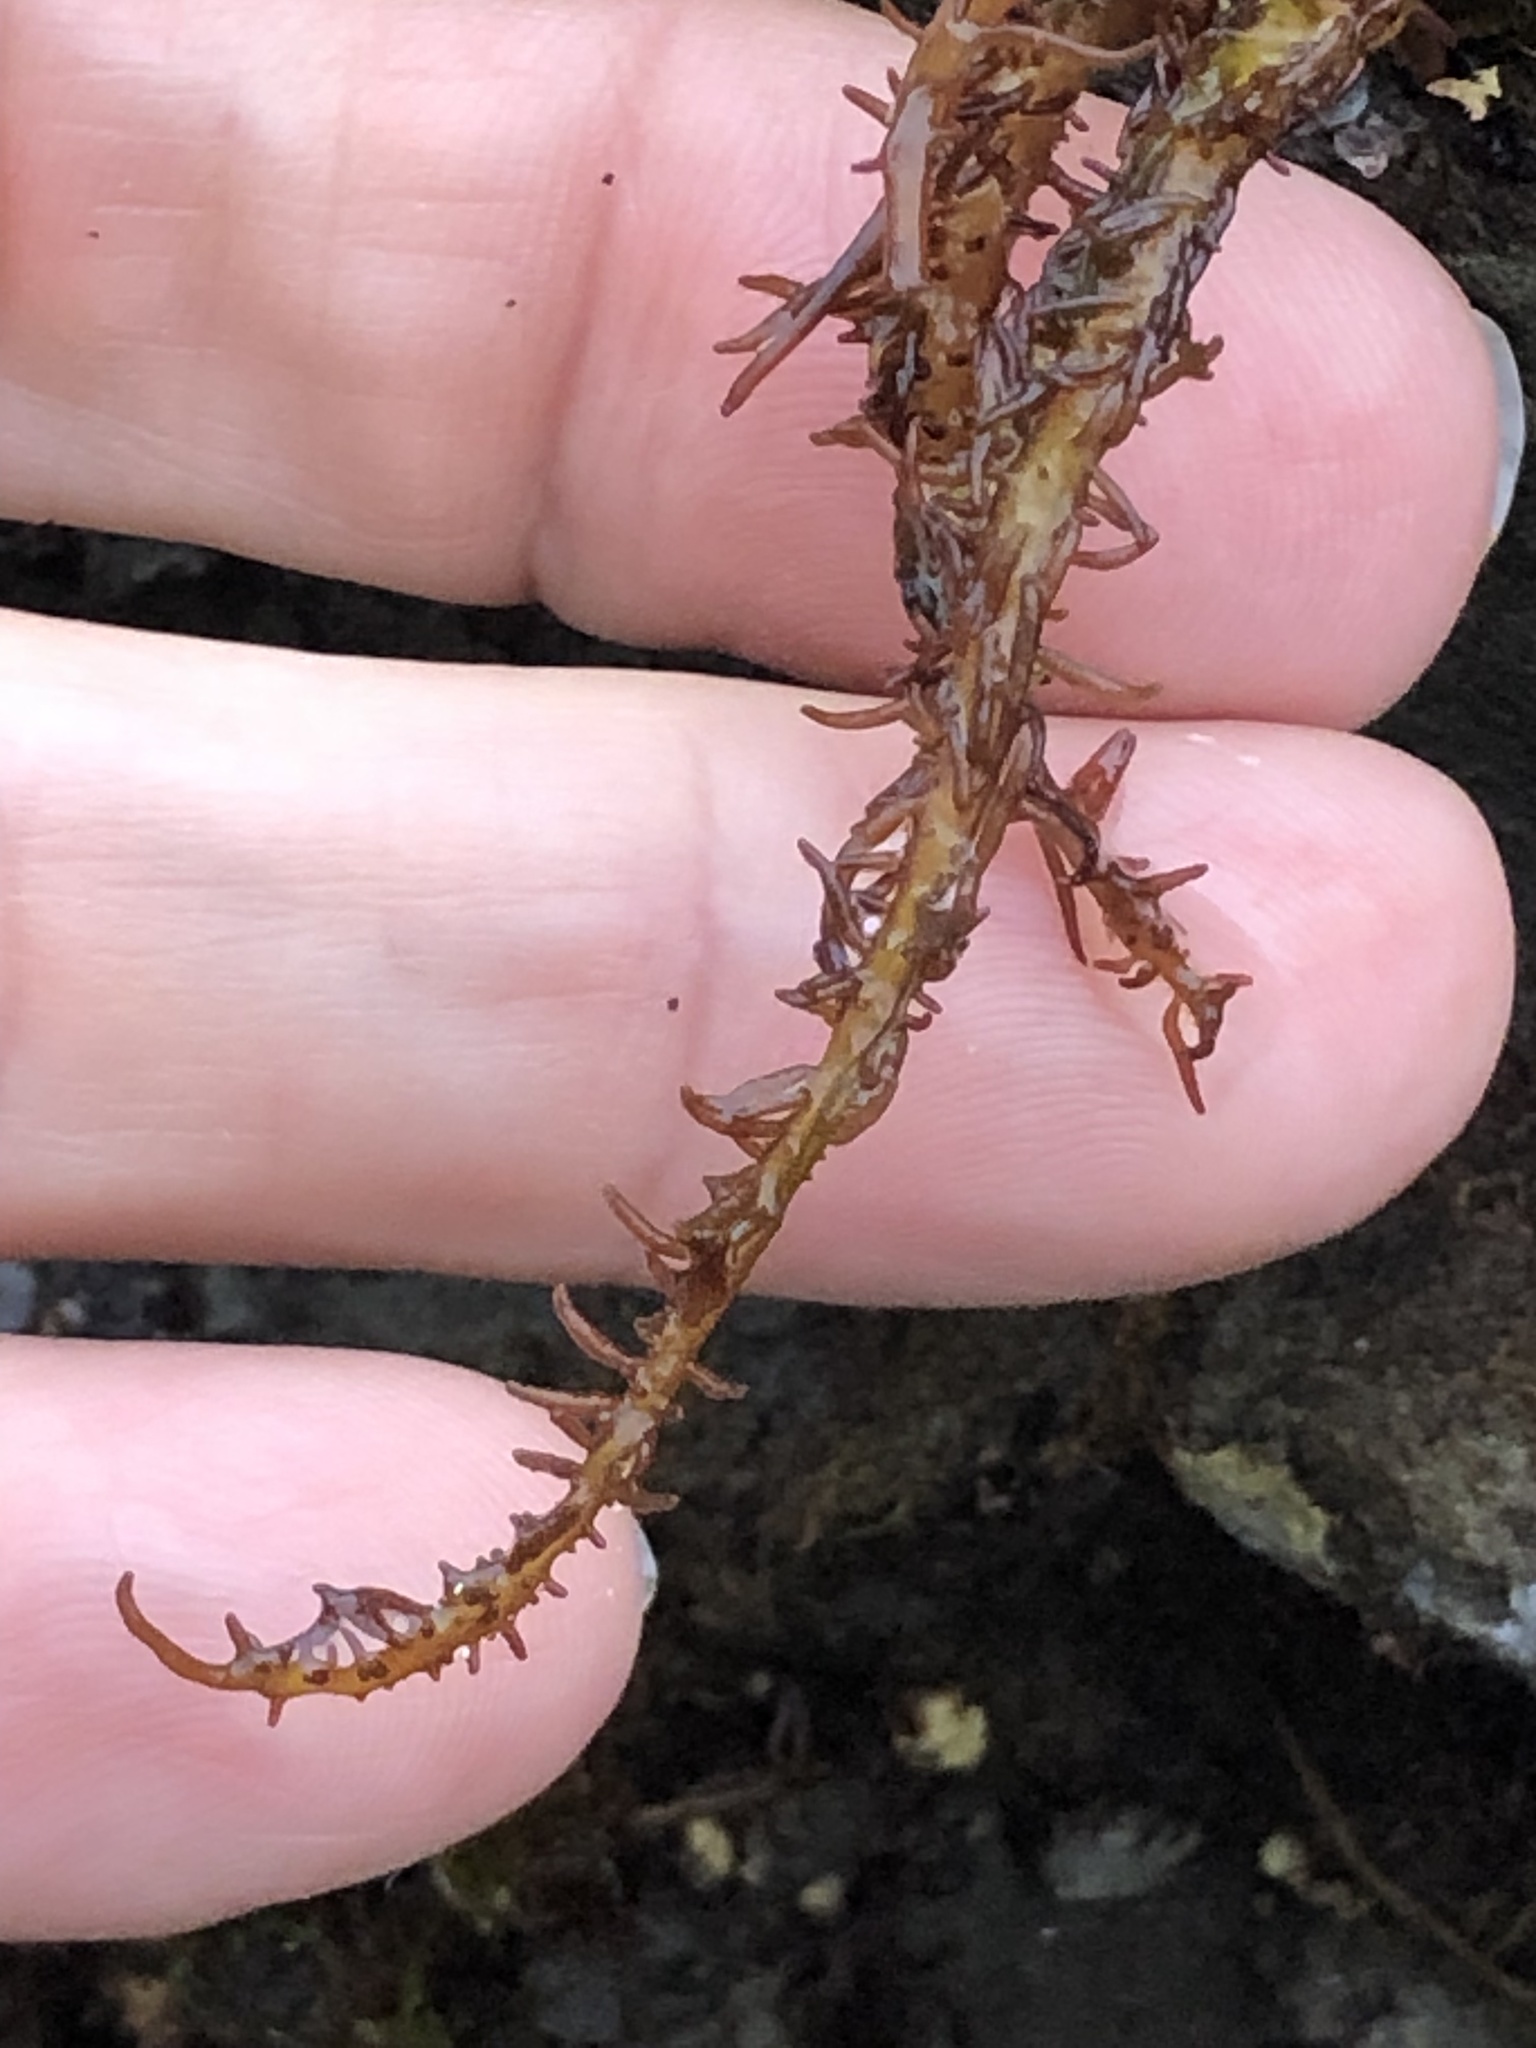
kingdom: Plantae
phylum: Rhodophyta
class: Florideophyceae
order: Nemaliales
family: Liagoraceae
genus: Cumagloia
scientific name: Cumagloia andersonii
